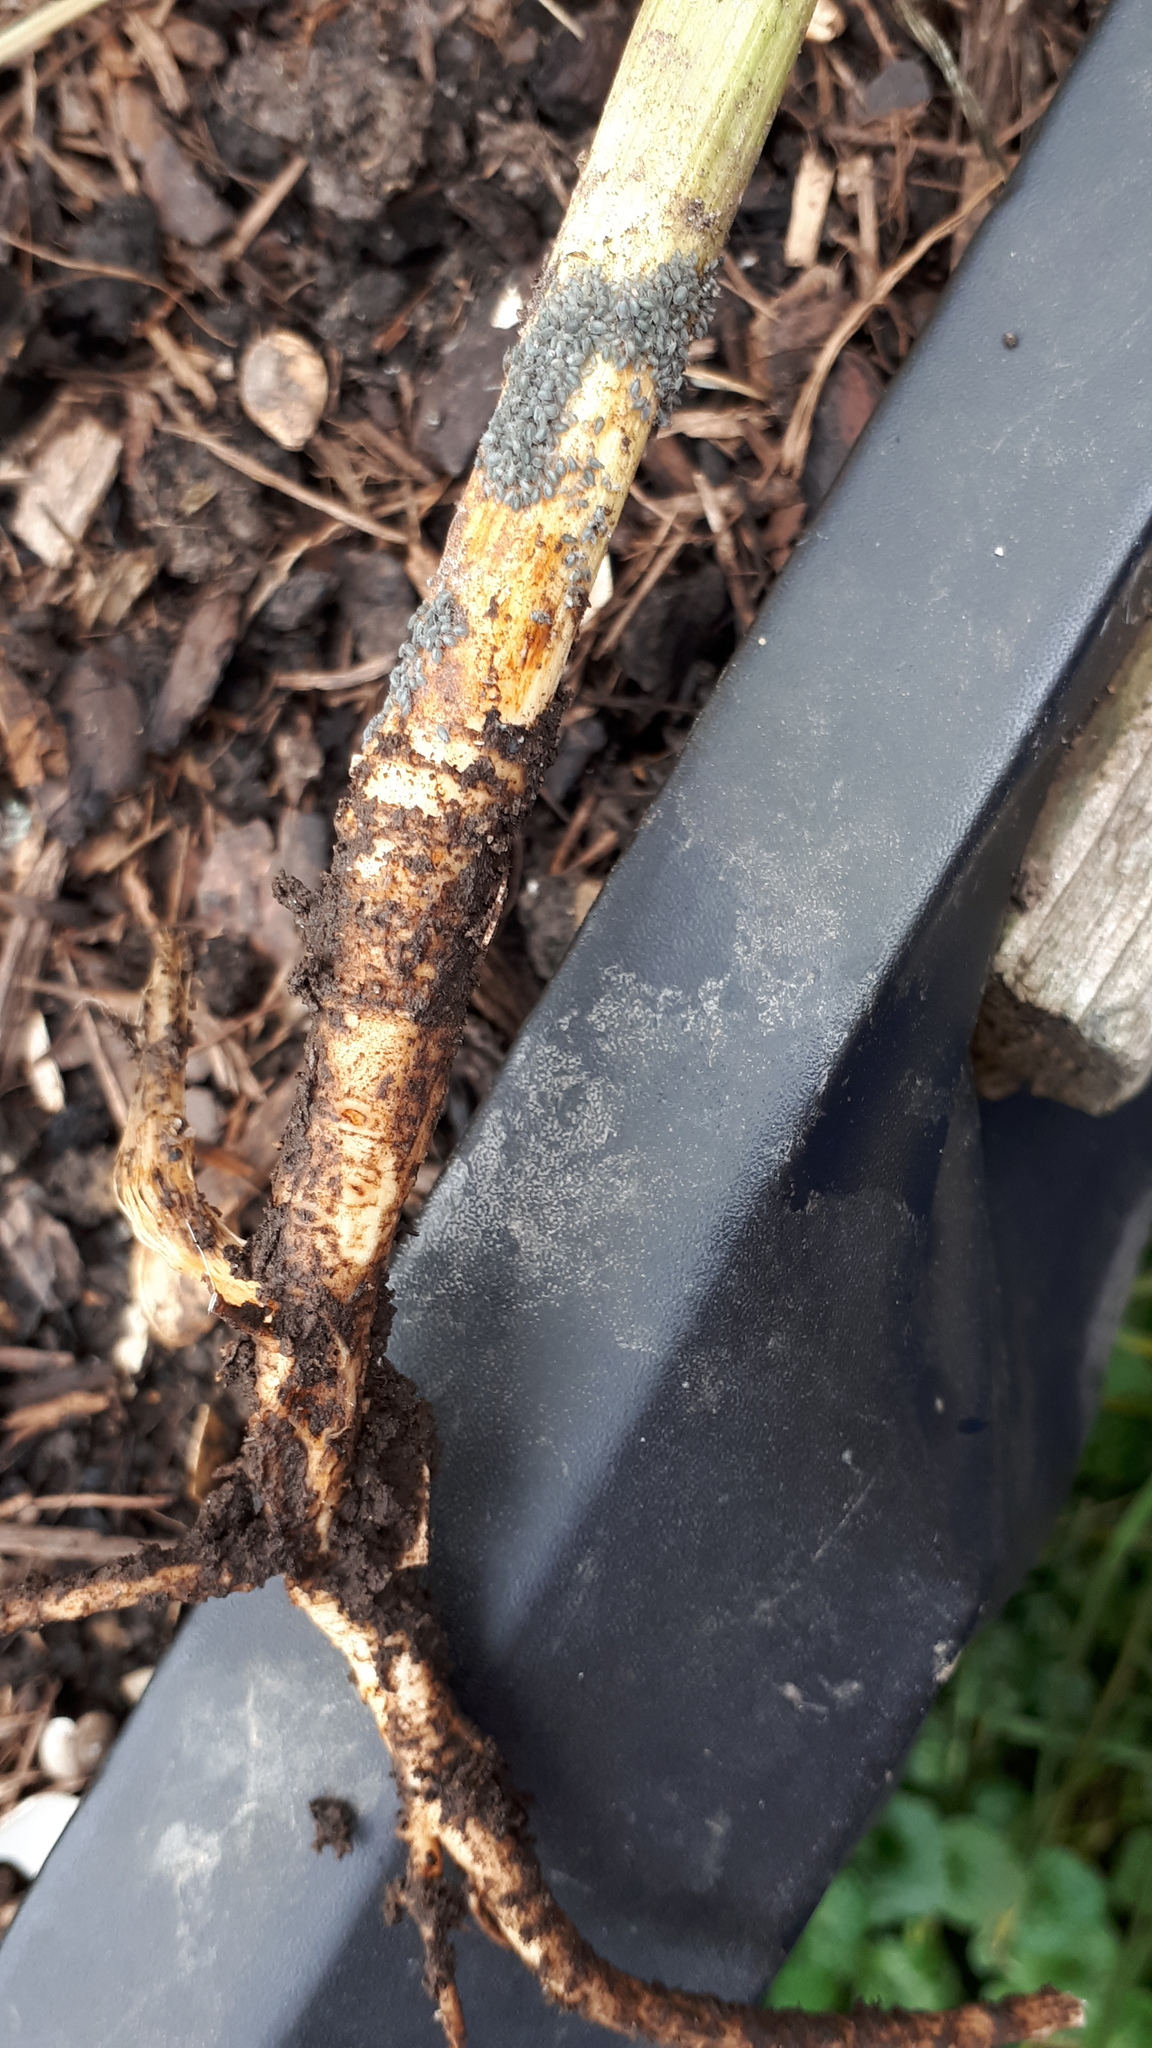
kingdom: Animalia
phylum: Arthropoda
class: Insecta
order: Hemiptera
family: Aphididae
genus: Dysaphis
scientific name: Dysaphis apiifolia
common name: Rusty banded aphid
